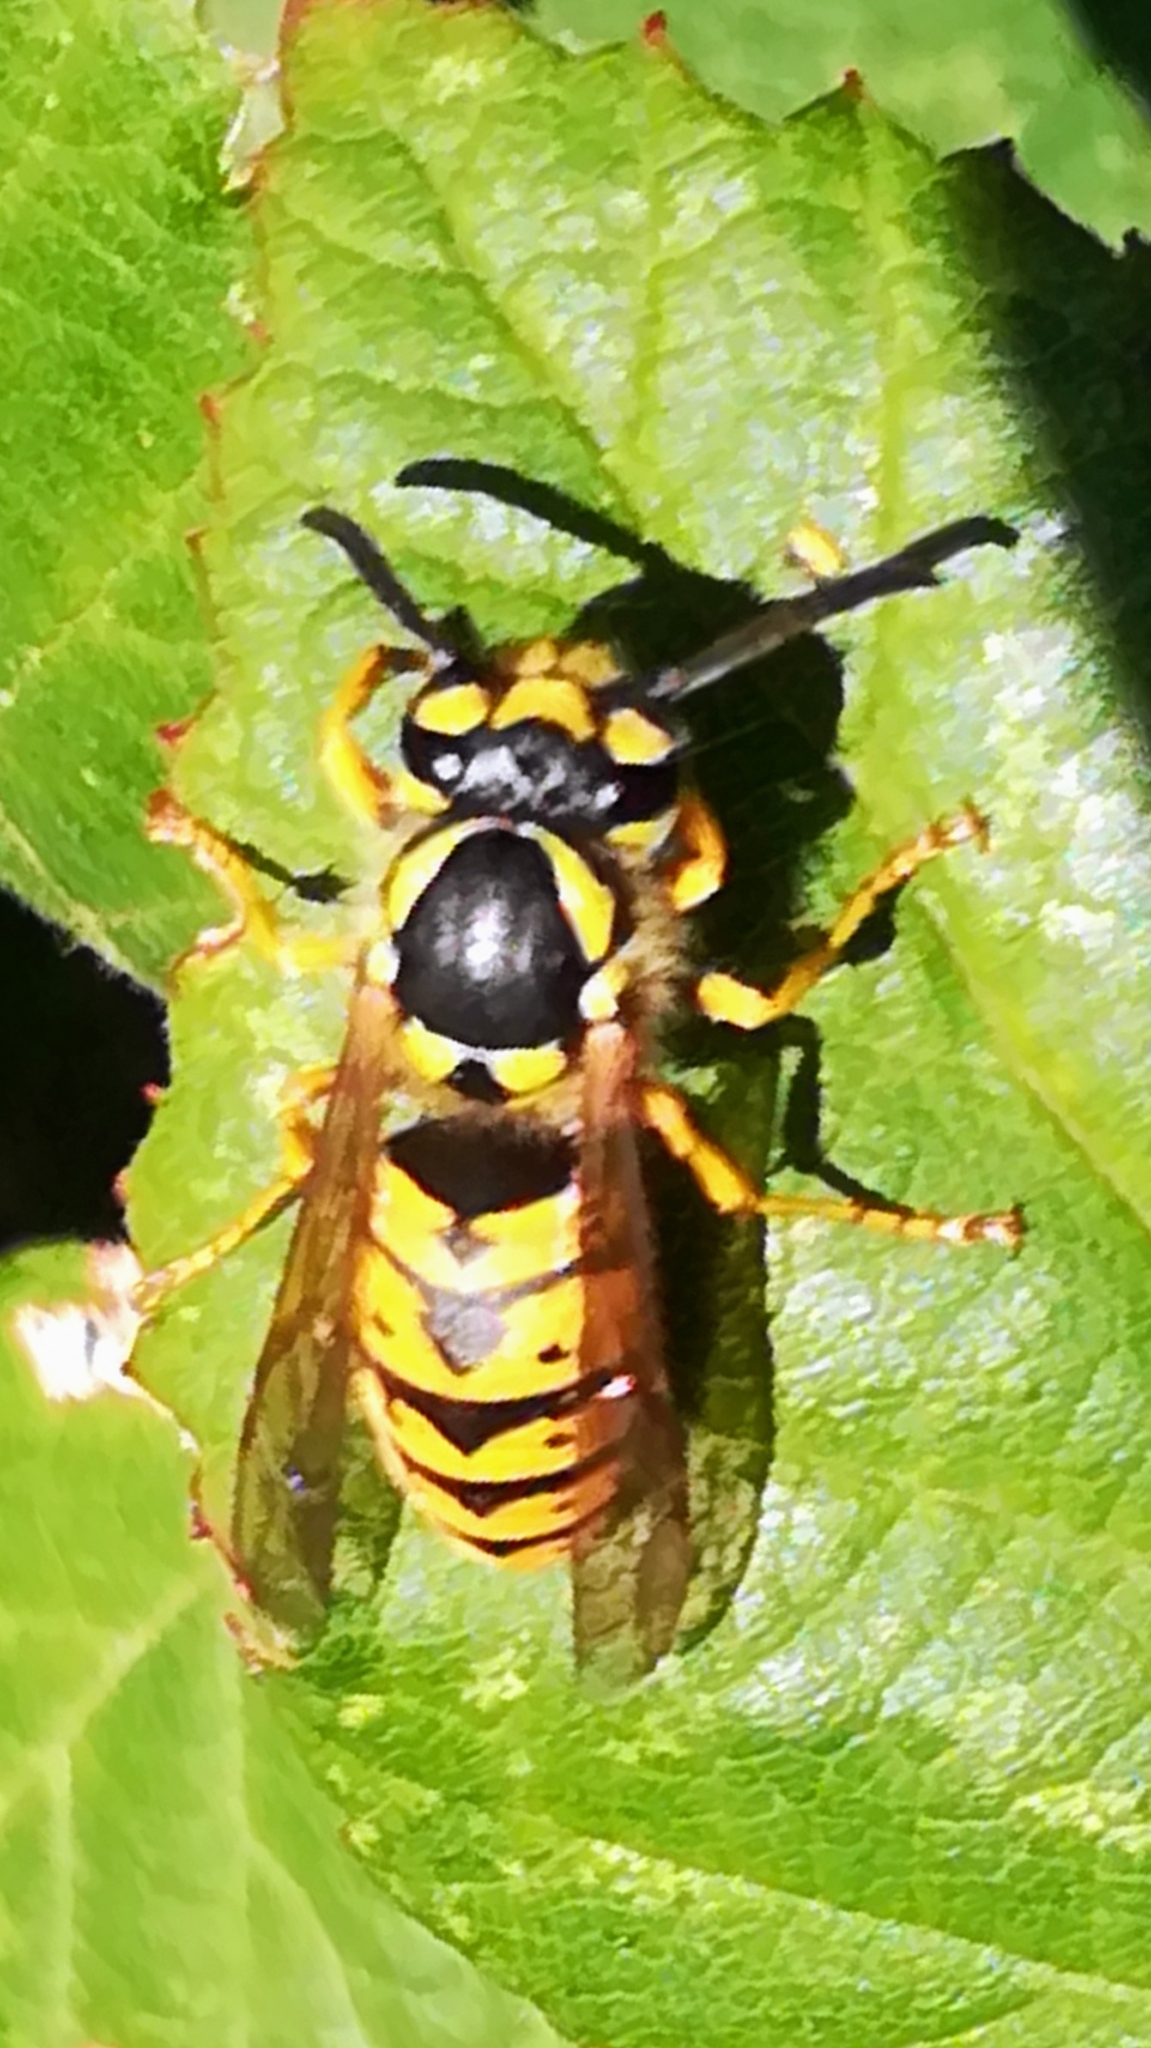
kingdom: Animalia
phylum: Arthropoda
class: Insecta
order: Hymenoptera
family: Vespidae
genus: Vespula
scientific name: Vespula germanica
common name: German wasp
